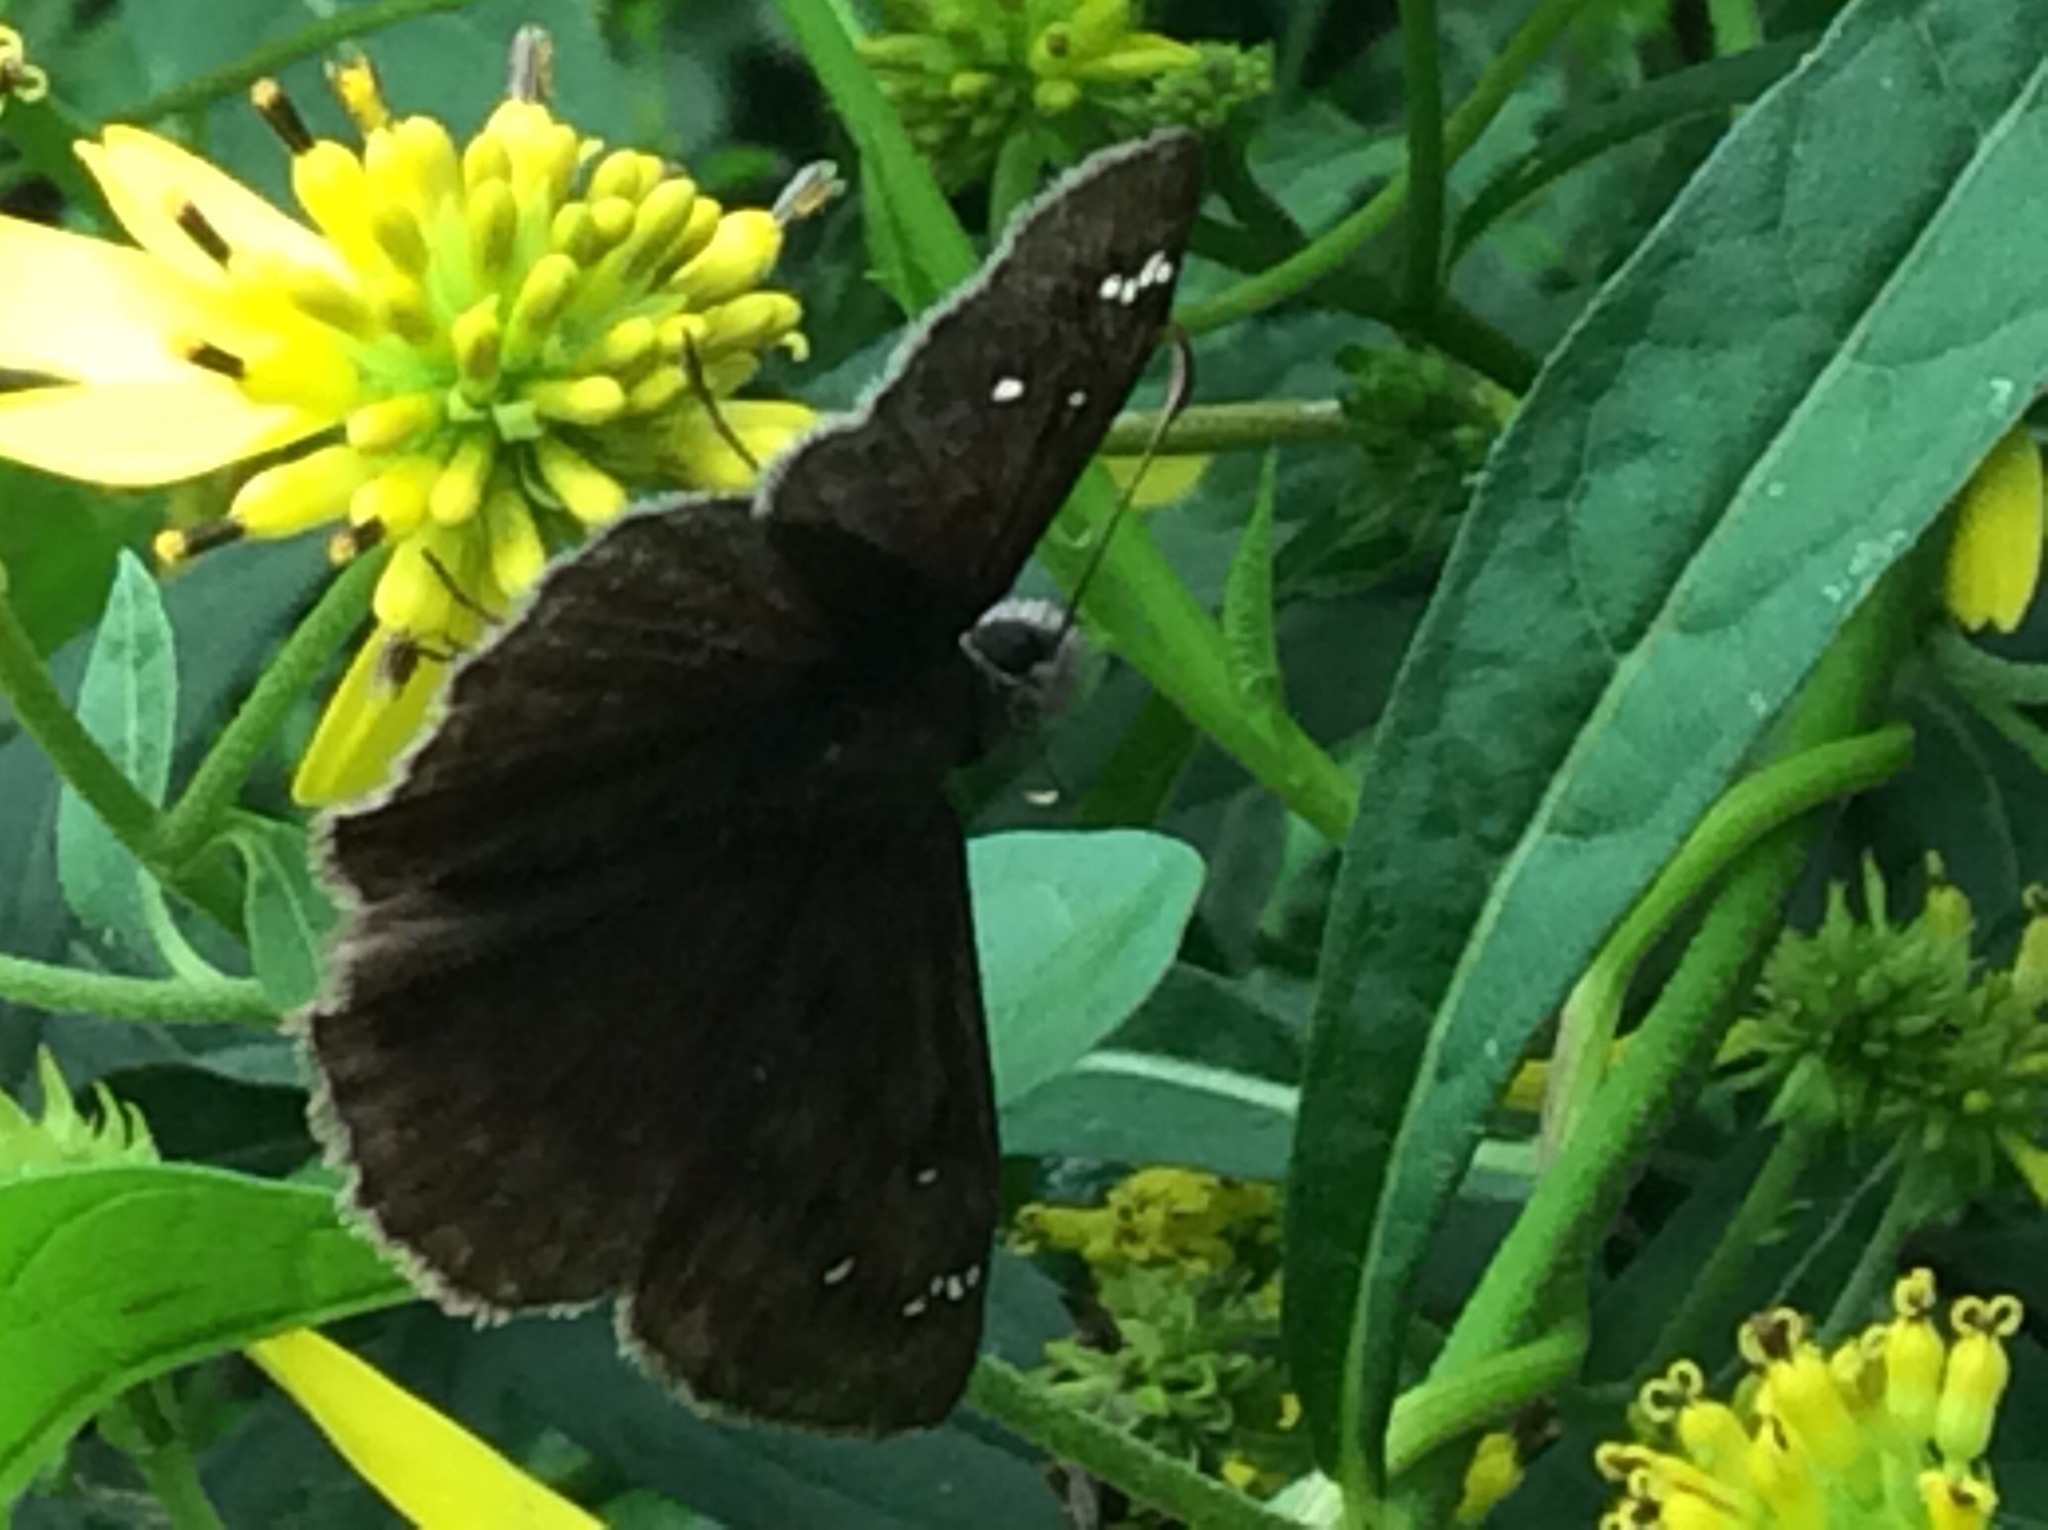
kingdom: Animalia
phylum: Arthropoda
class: Insecta
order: Lepidoptera
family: Hesperiidae
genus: Erynnis
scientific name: Erynnis horatius
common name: Horace's duskywing
